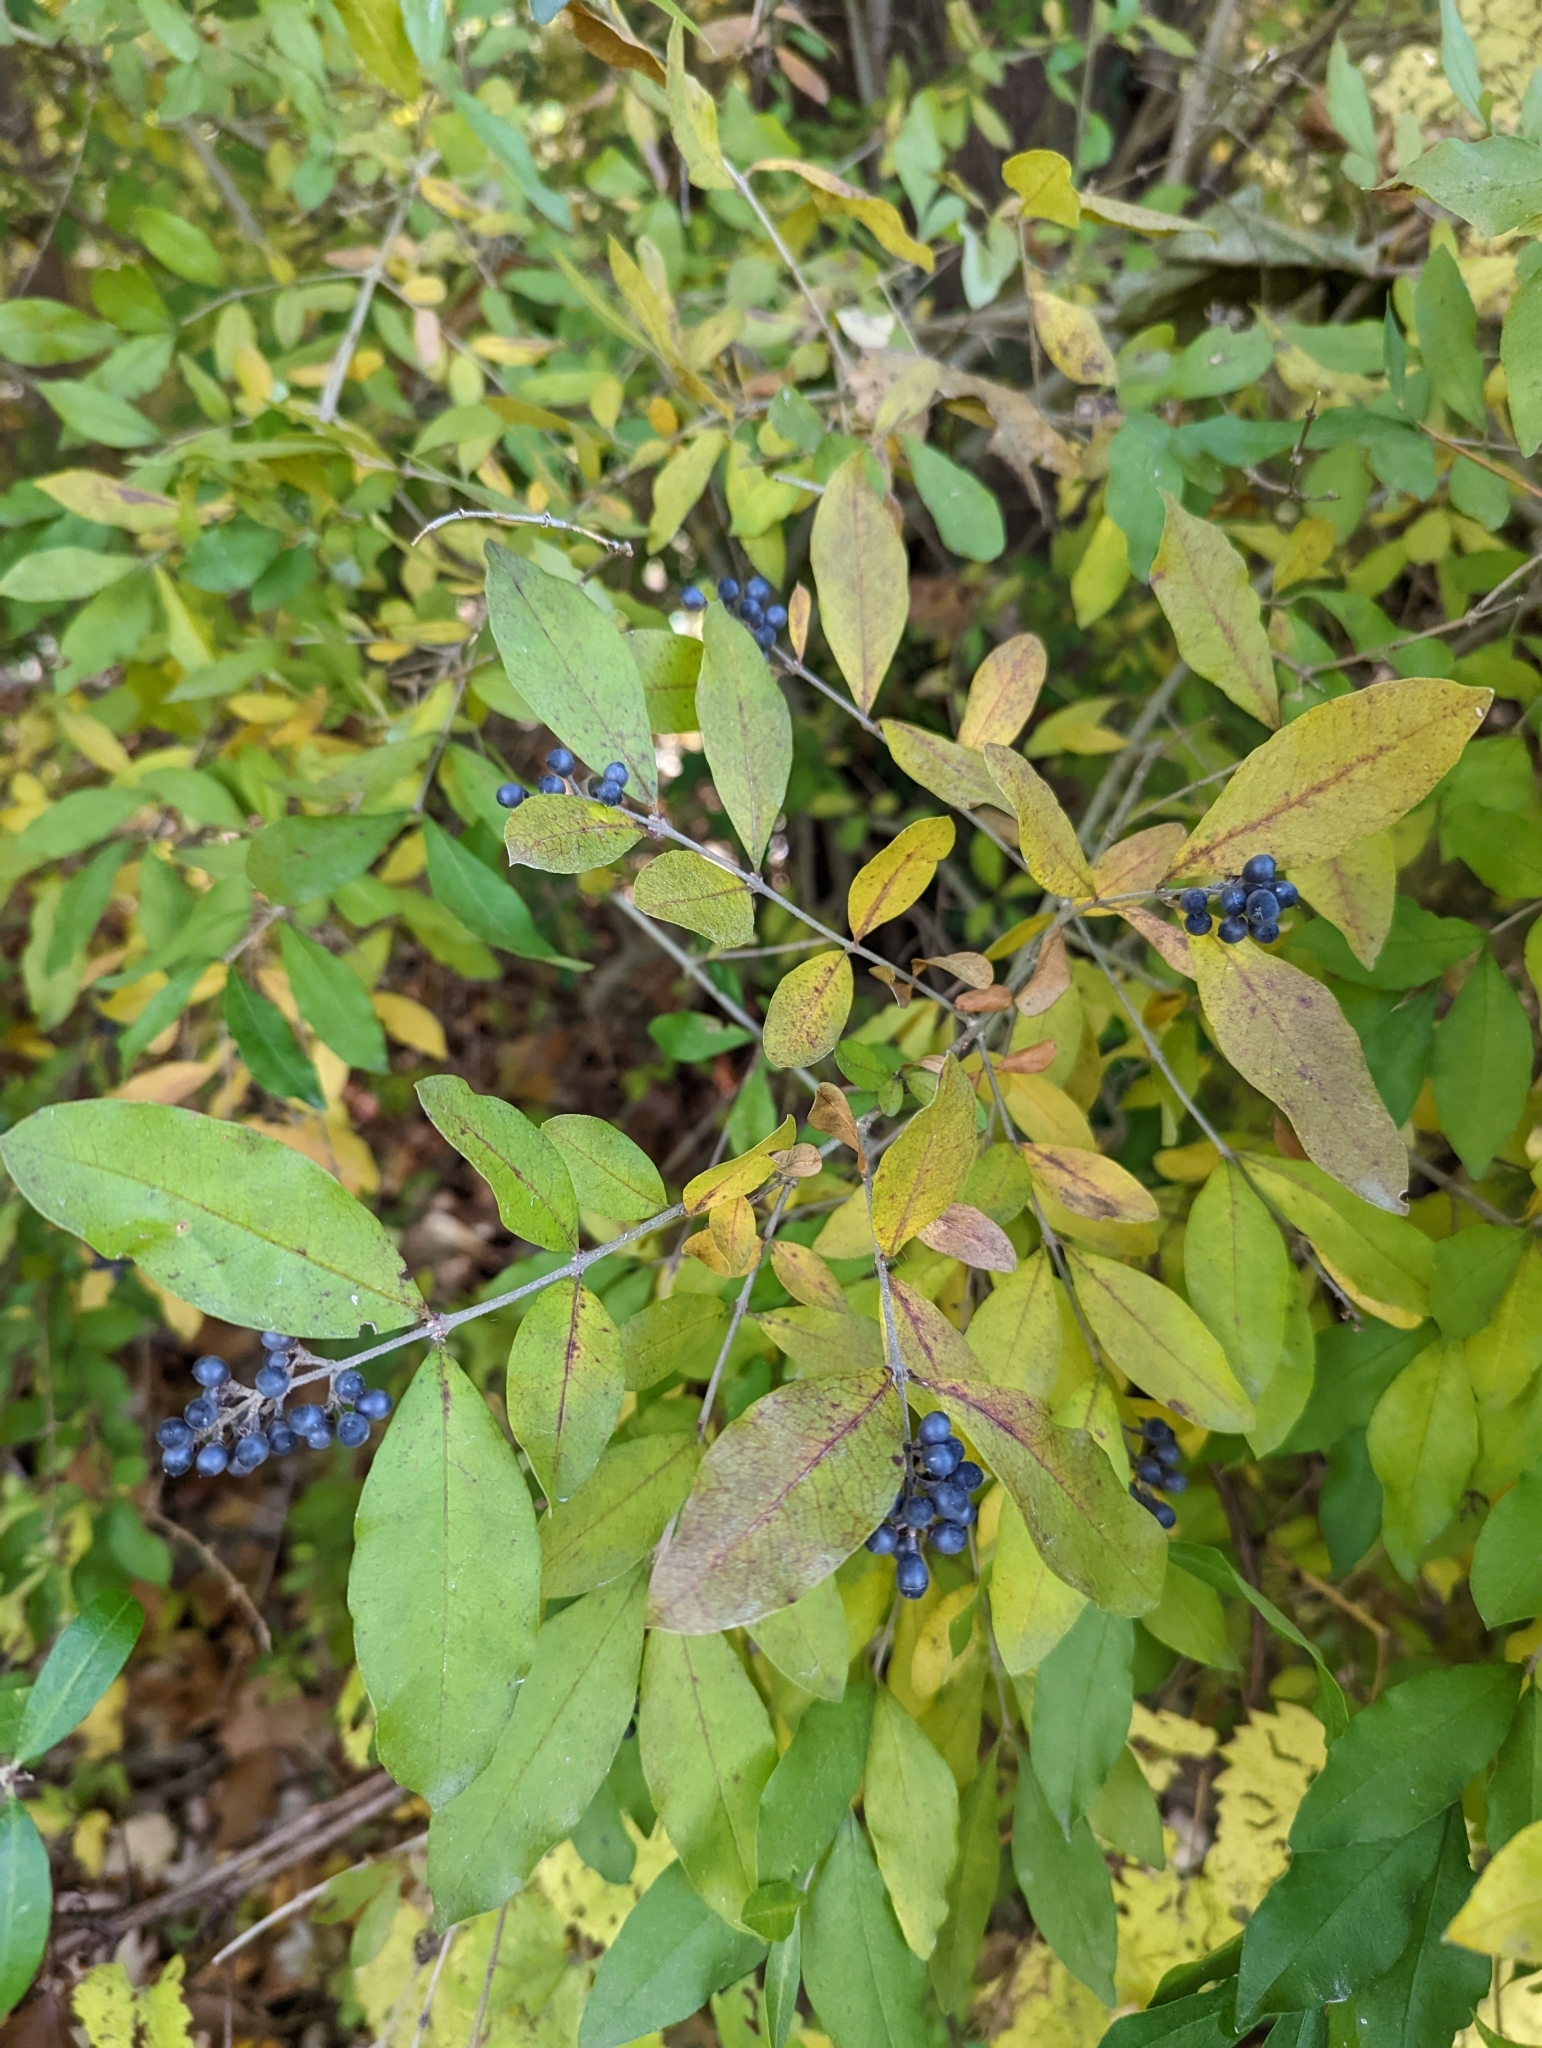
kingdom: Plantae
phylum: Tracheophyta
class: Magnoliopsida
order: Lamiales
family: Oleaceae
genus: Ligustrum
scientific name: Ligustrum obtusifolium
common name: Border privet
